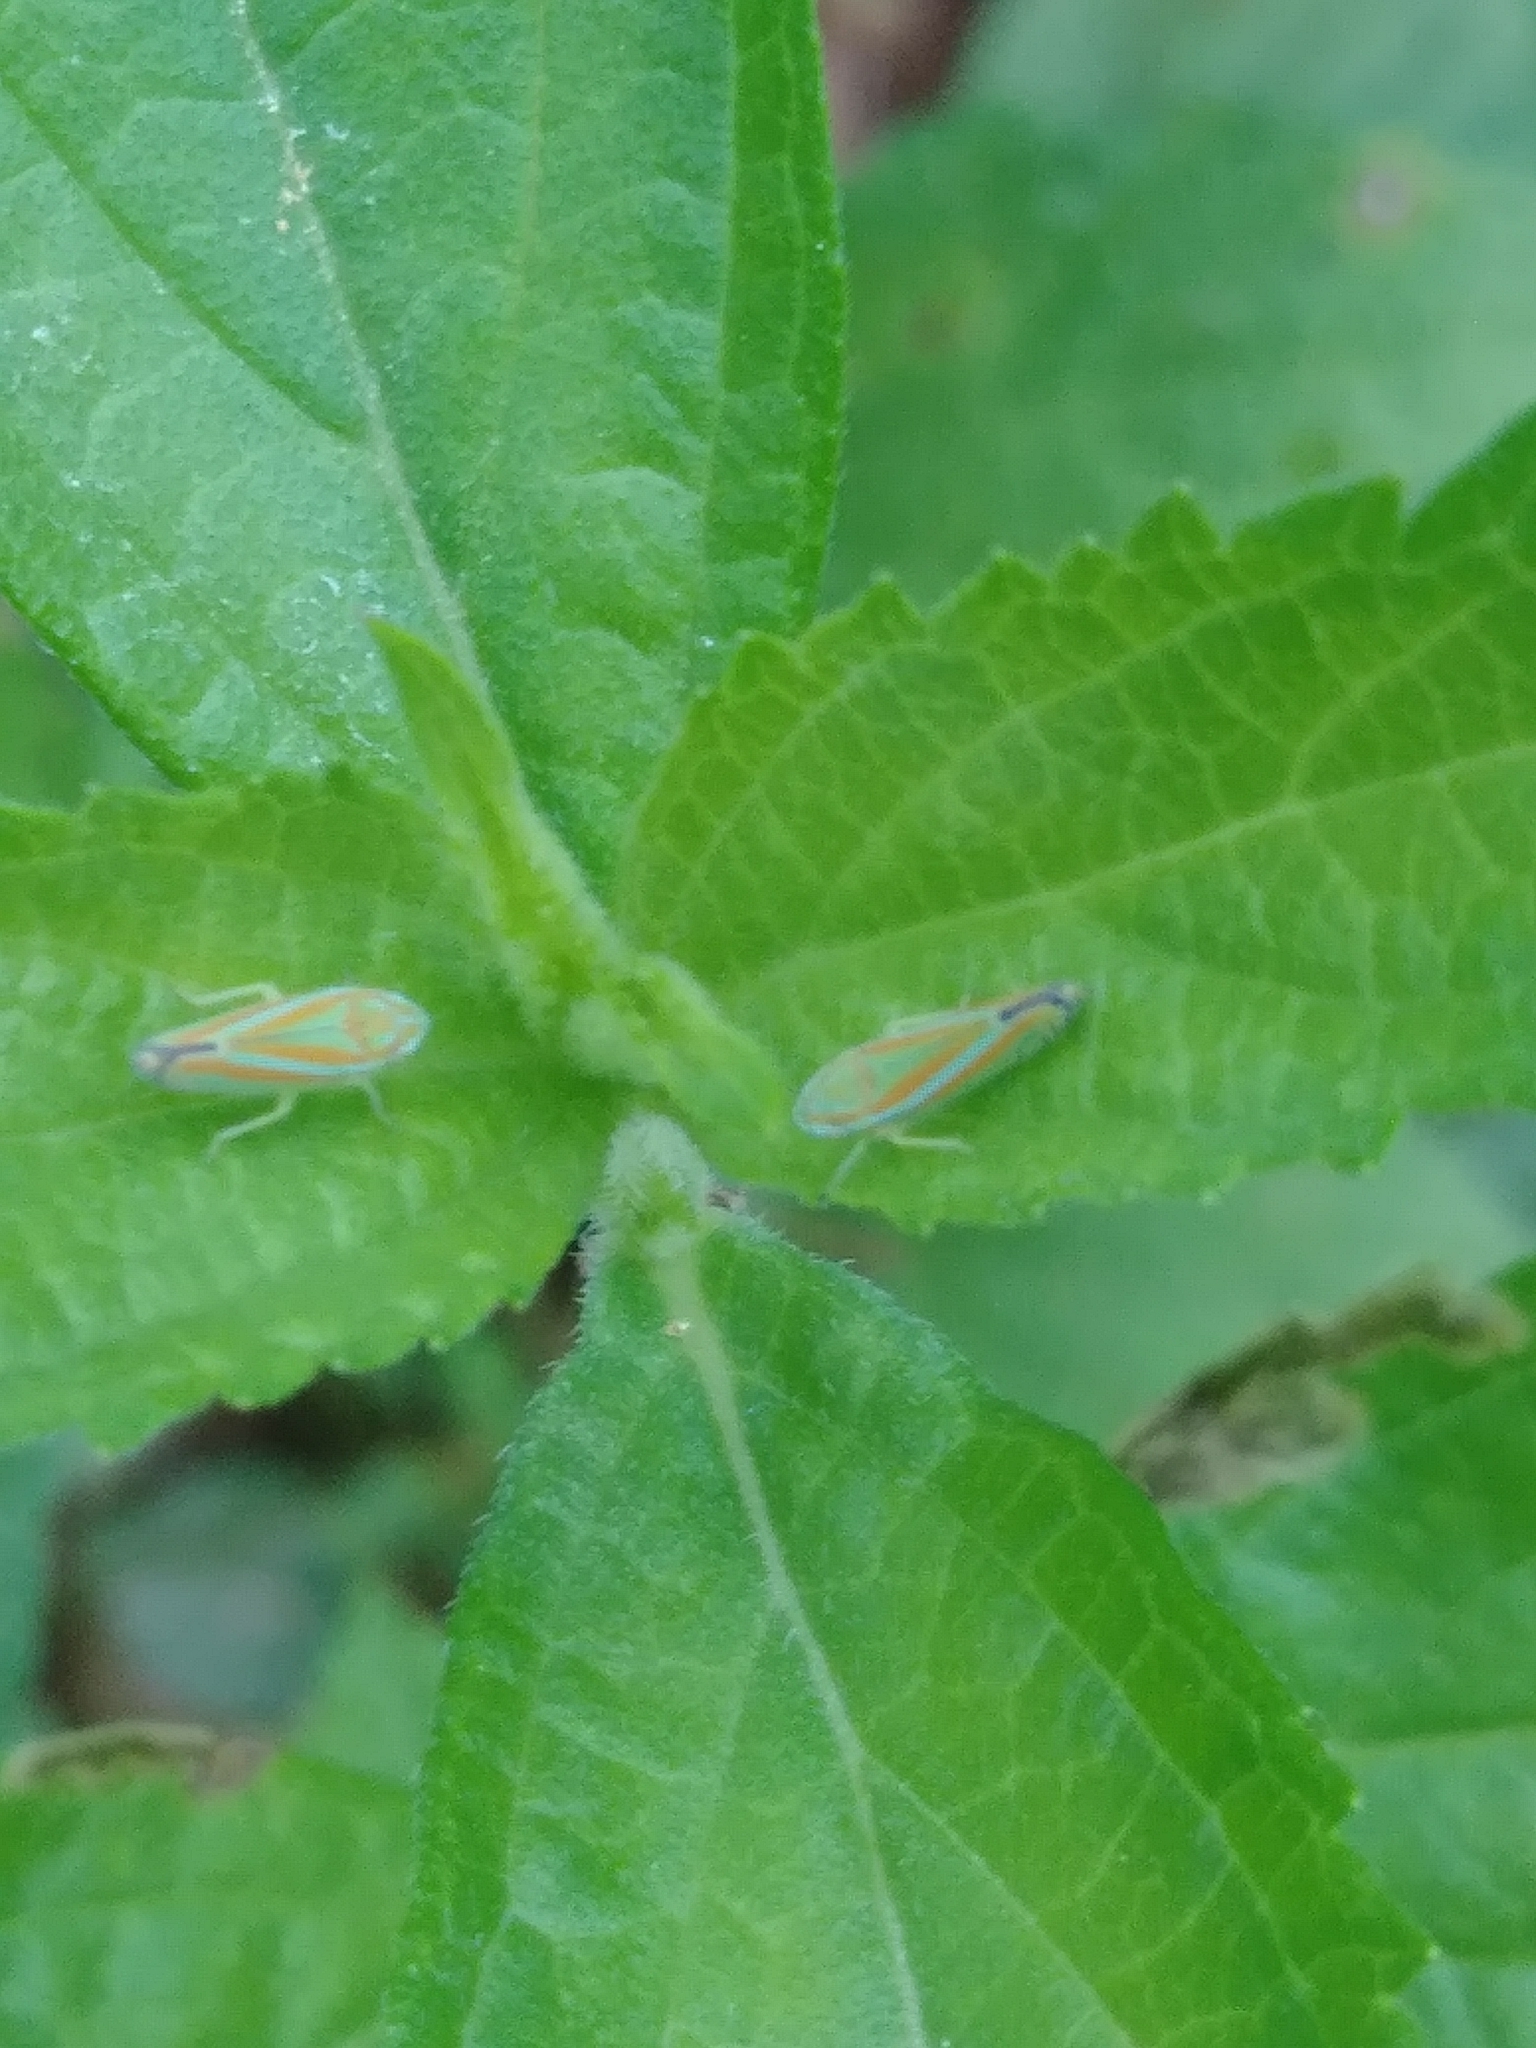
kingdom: Animalia
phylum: Arthropoda
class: Insecta
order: Hemiptera
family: Cicadellidae
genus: Graphocephala
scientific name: Graphocephala versuta
